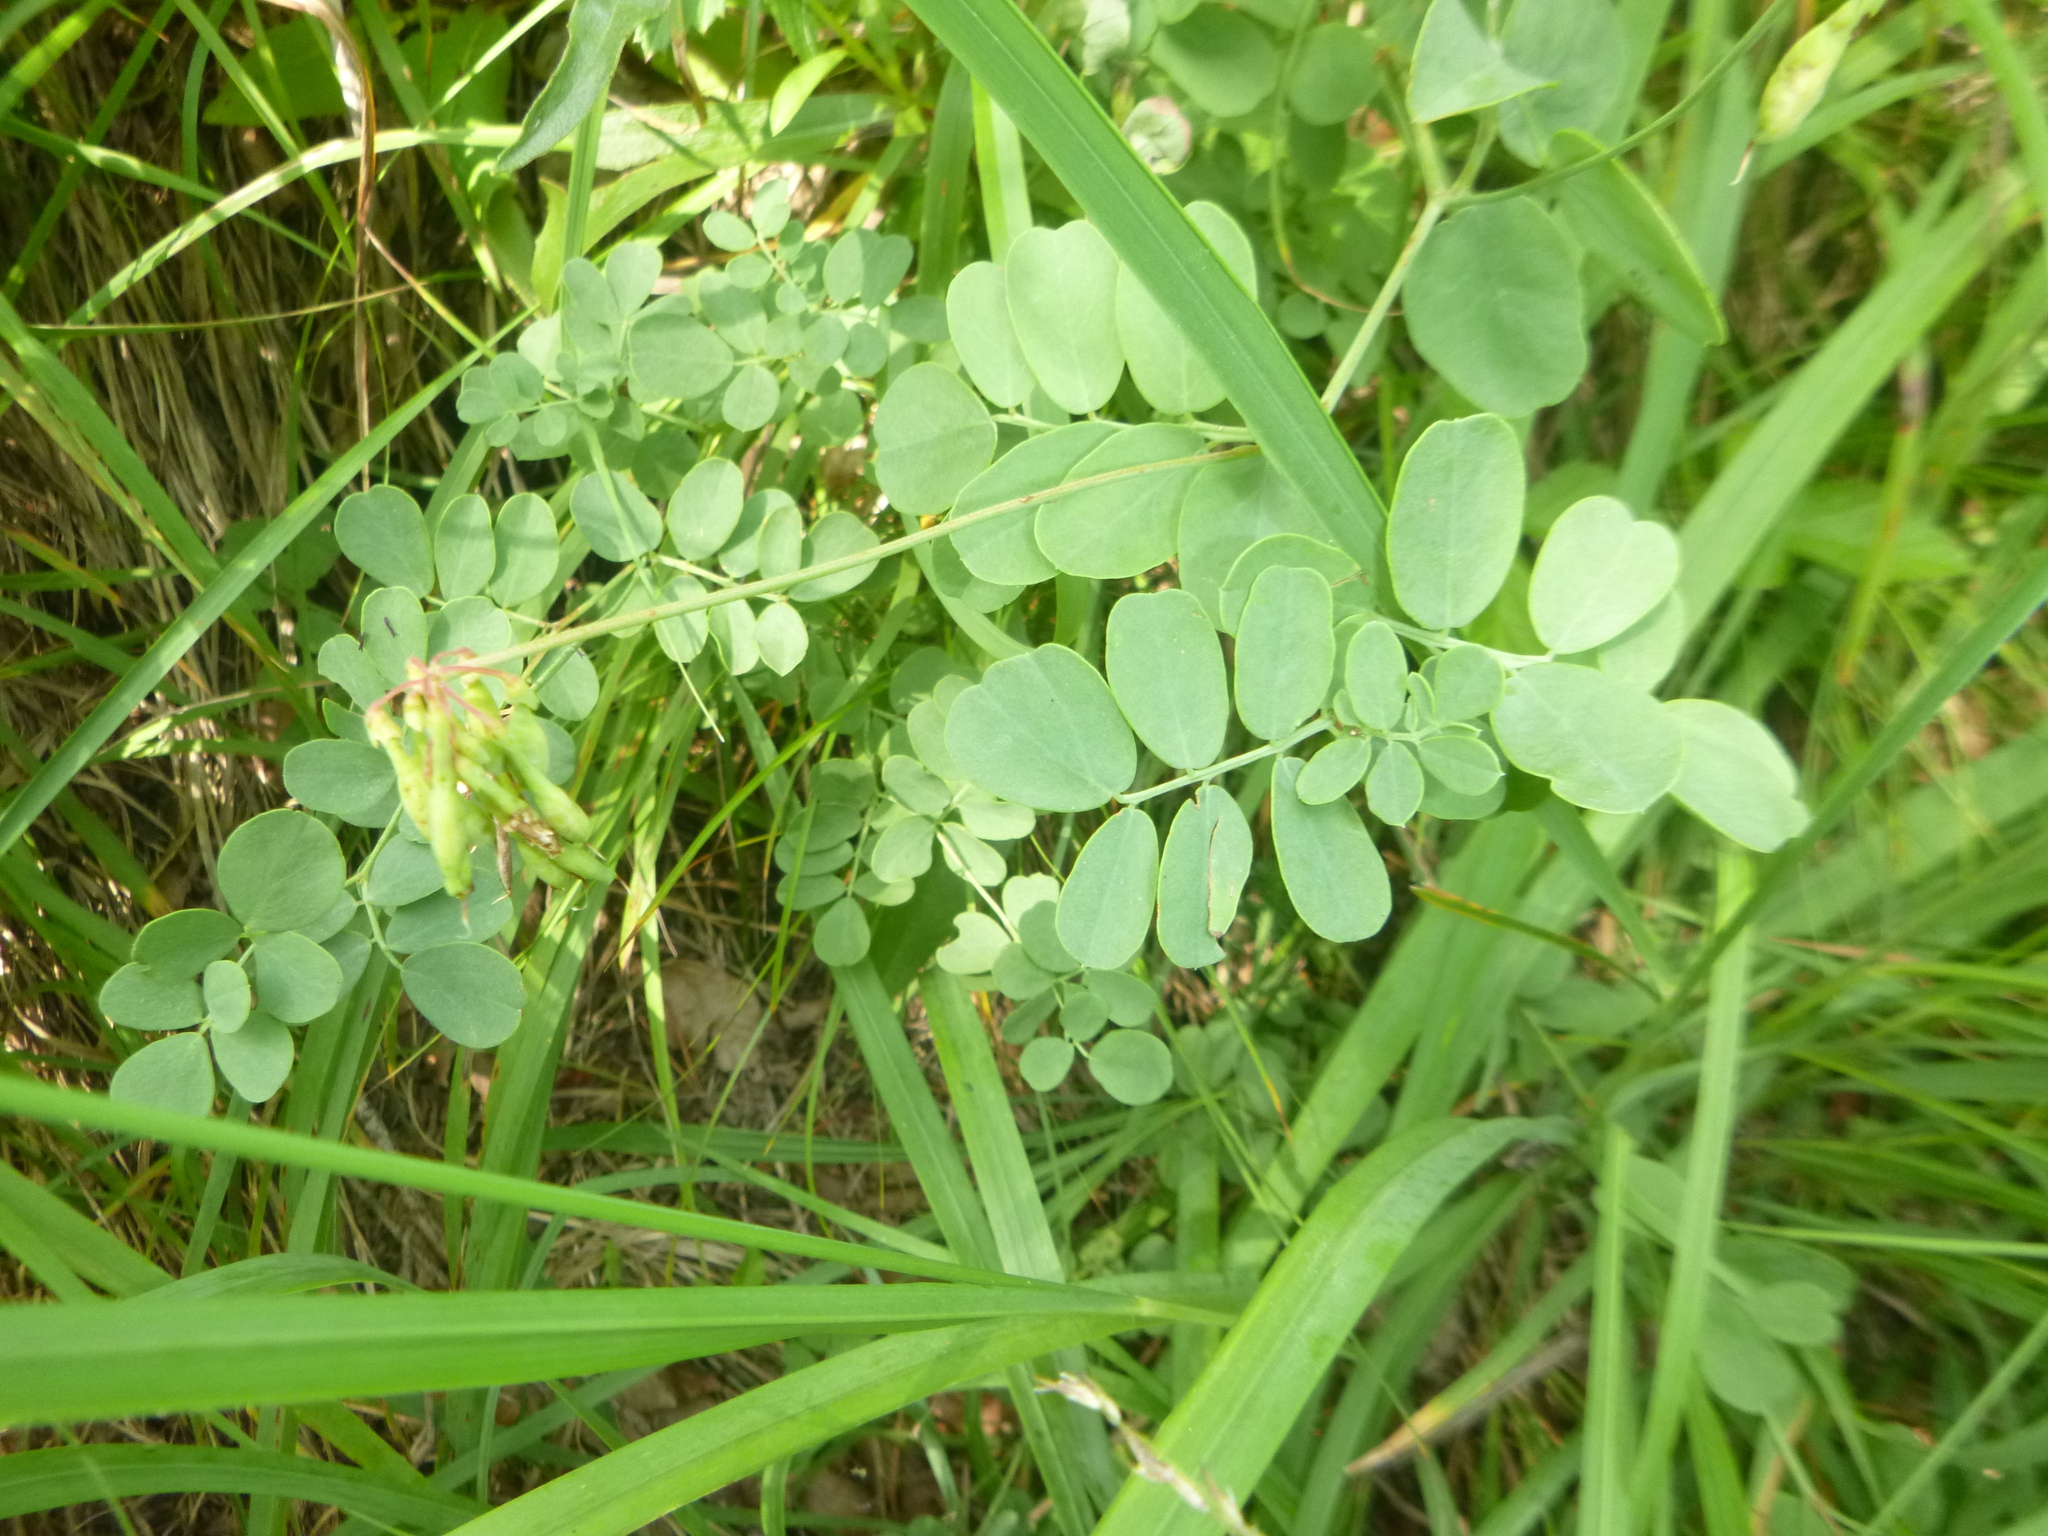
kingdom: Plantae
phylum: Tracheophyta
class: Magnoliopsida
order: Fabales
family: Fabaceae
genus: Coronilla
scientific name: Coronilla coronata
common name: Scorpion-vetch
